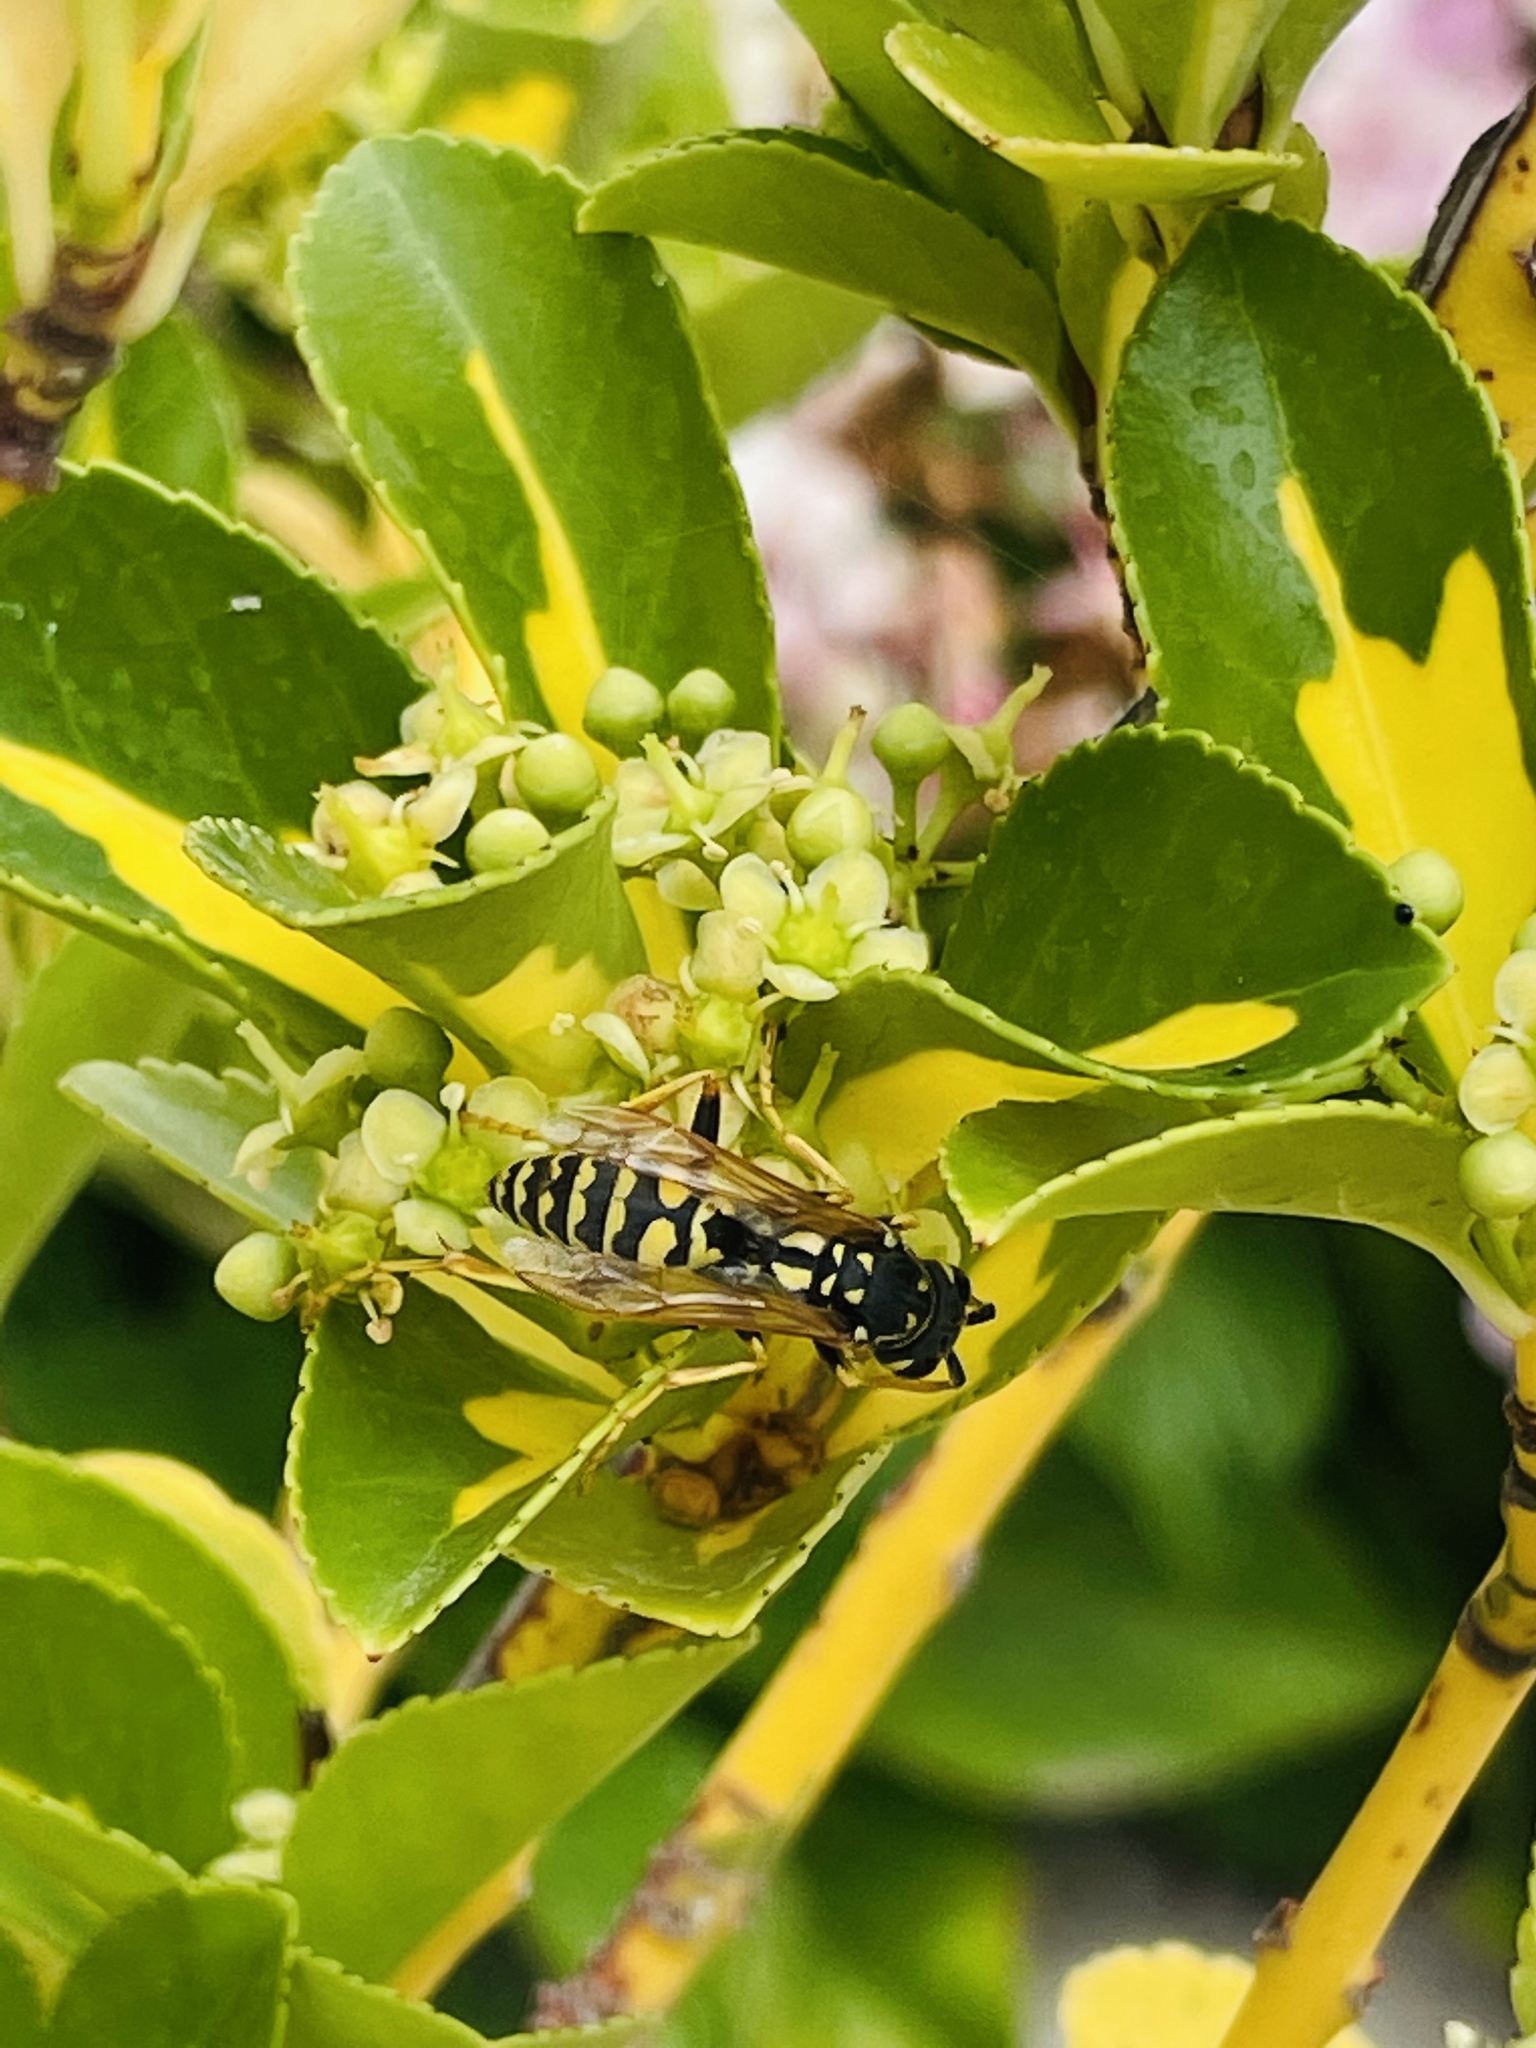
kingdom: Animalia
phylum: Arthropoda
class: Insecta
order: Hymenoptera
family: Eumenidae
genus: Polistes
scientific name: Polistes dominula
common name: Paper wasp
